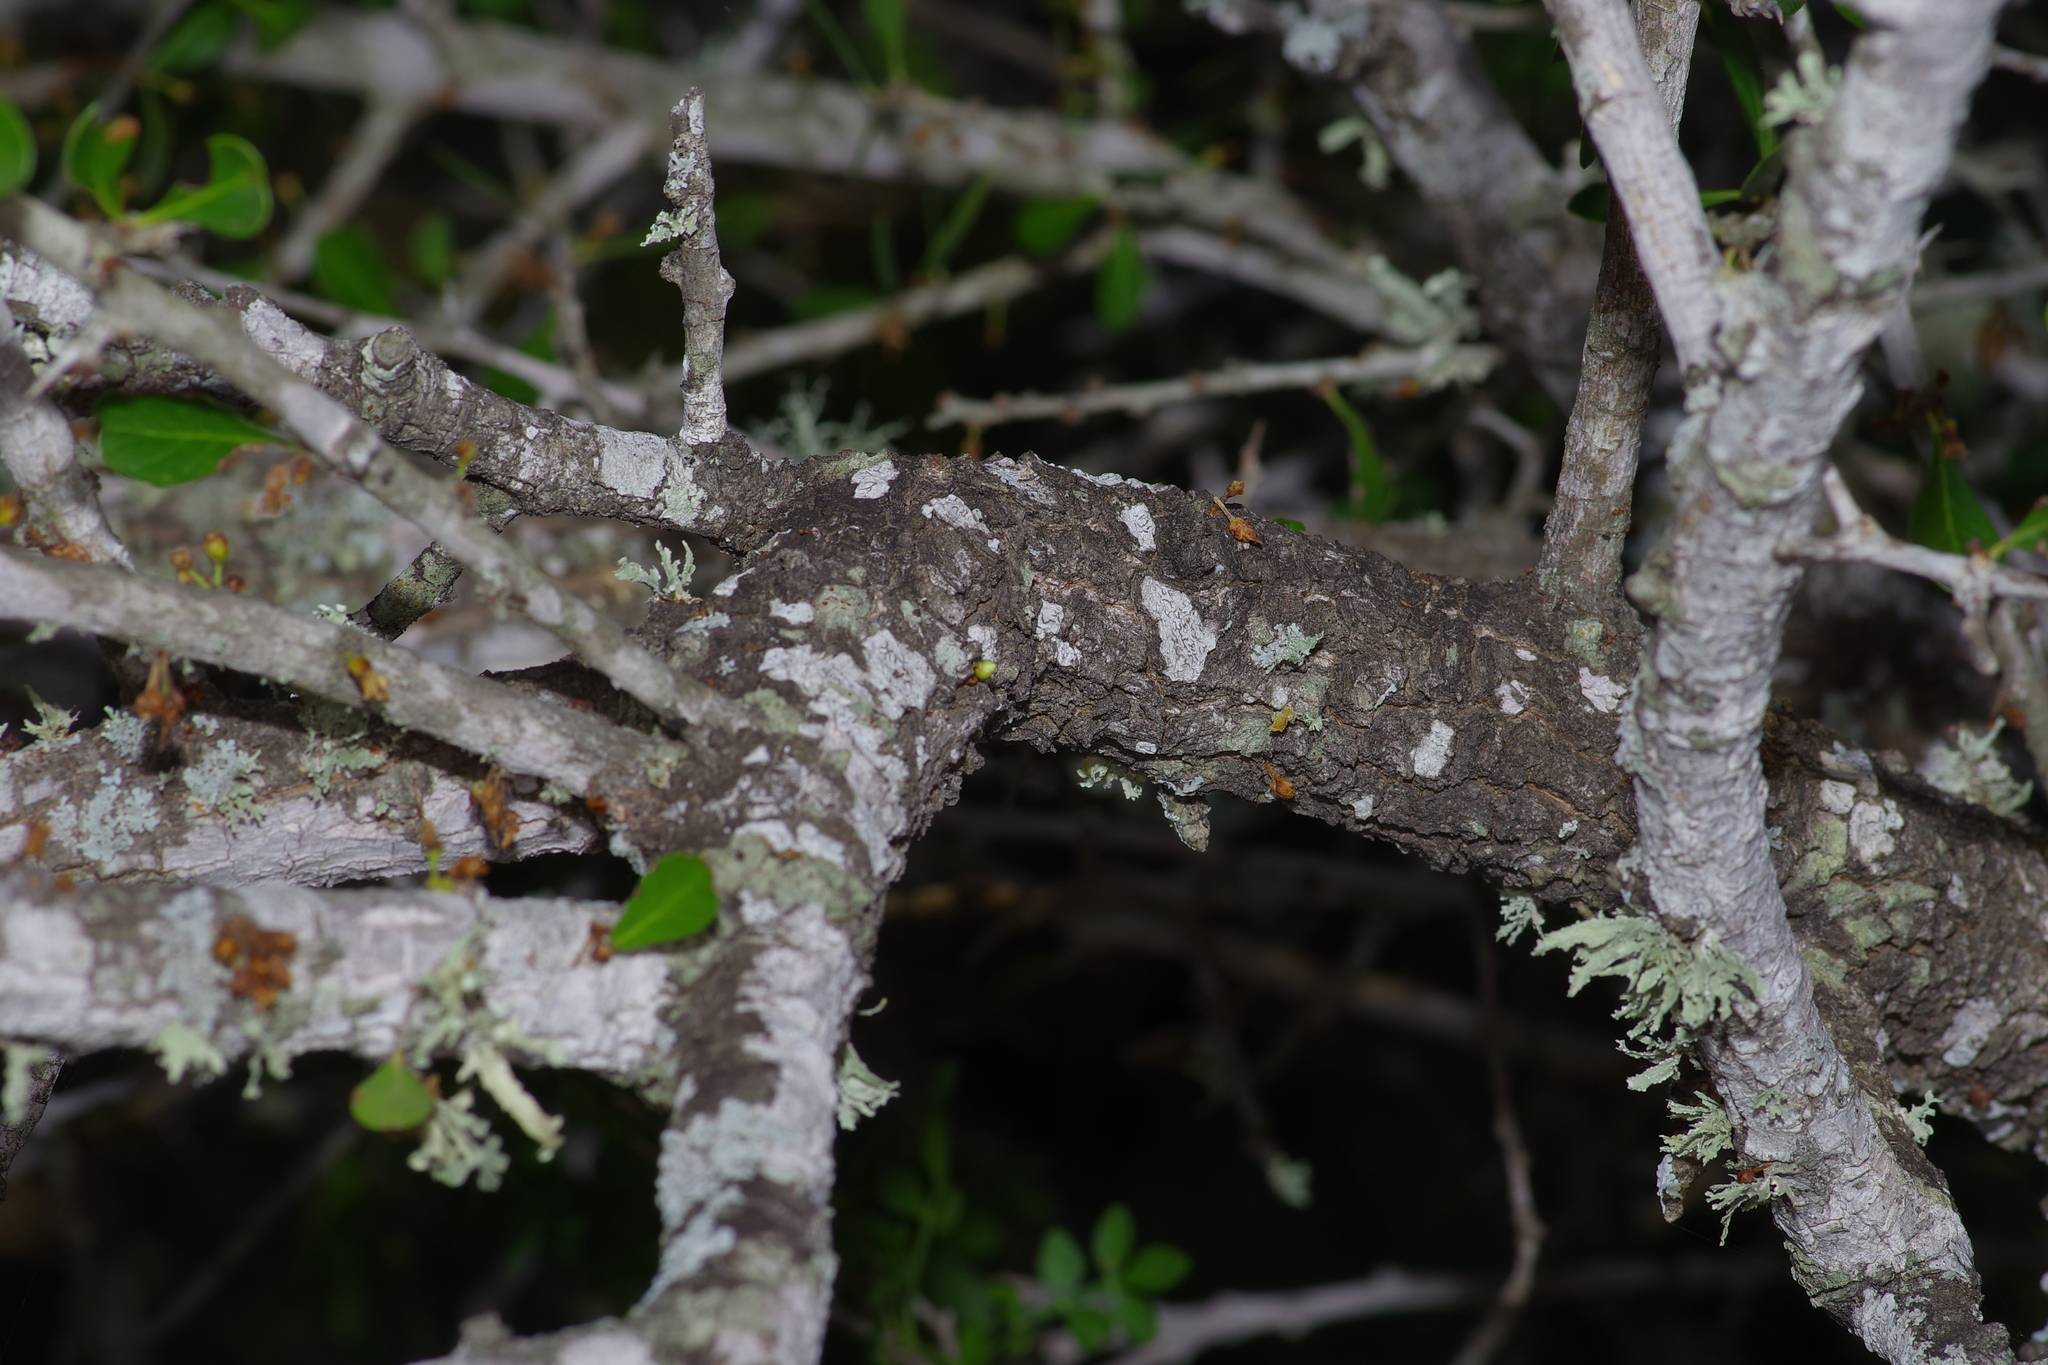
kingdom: Plantae
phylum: Tracheophyta
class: Magnoliopsida
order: Ericales
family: Sapotaceae
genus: Sideroxylon
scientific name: Sideroxylon celastrinum
